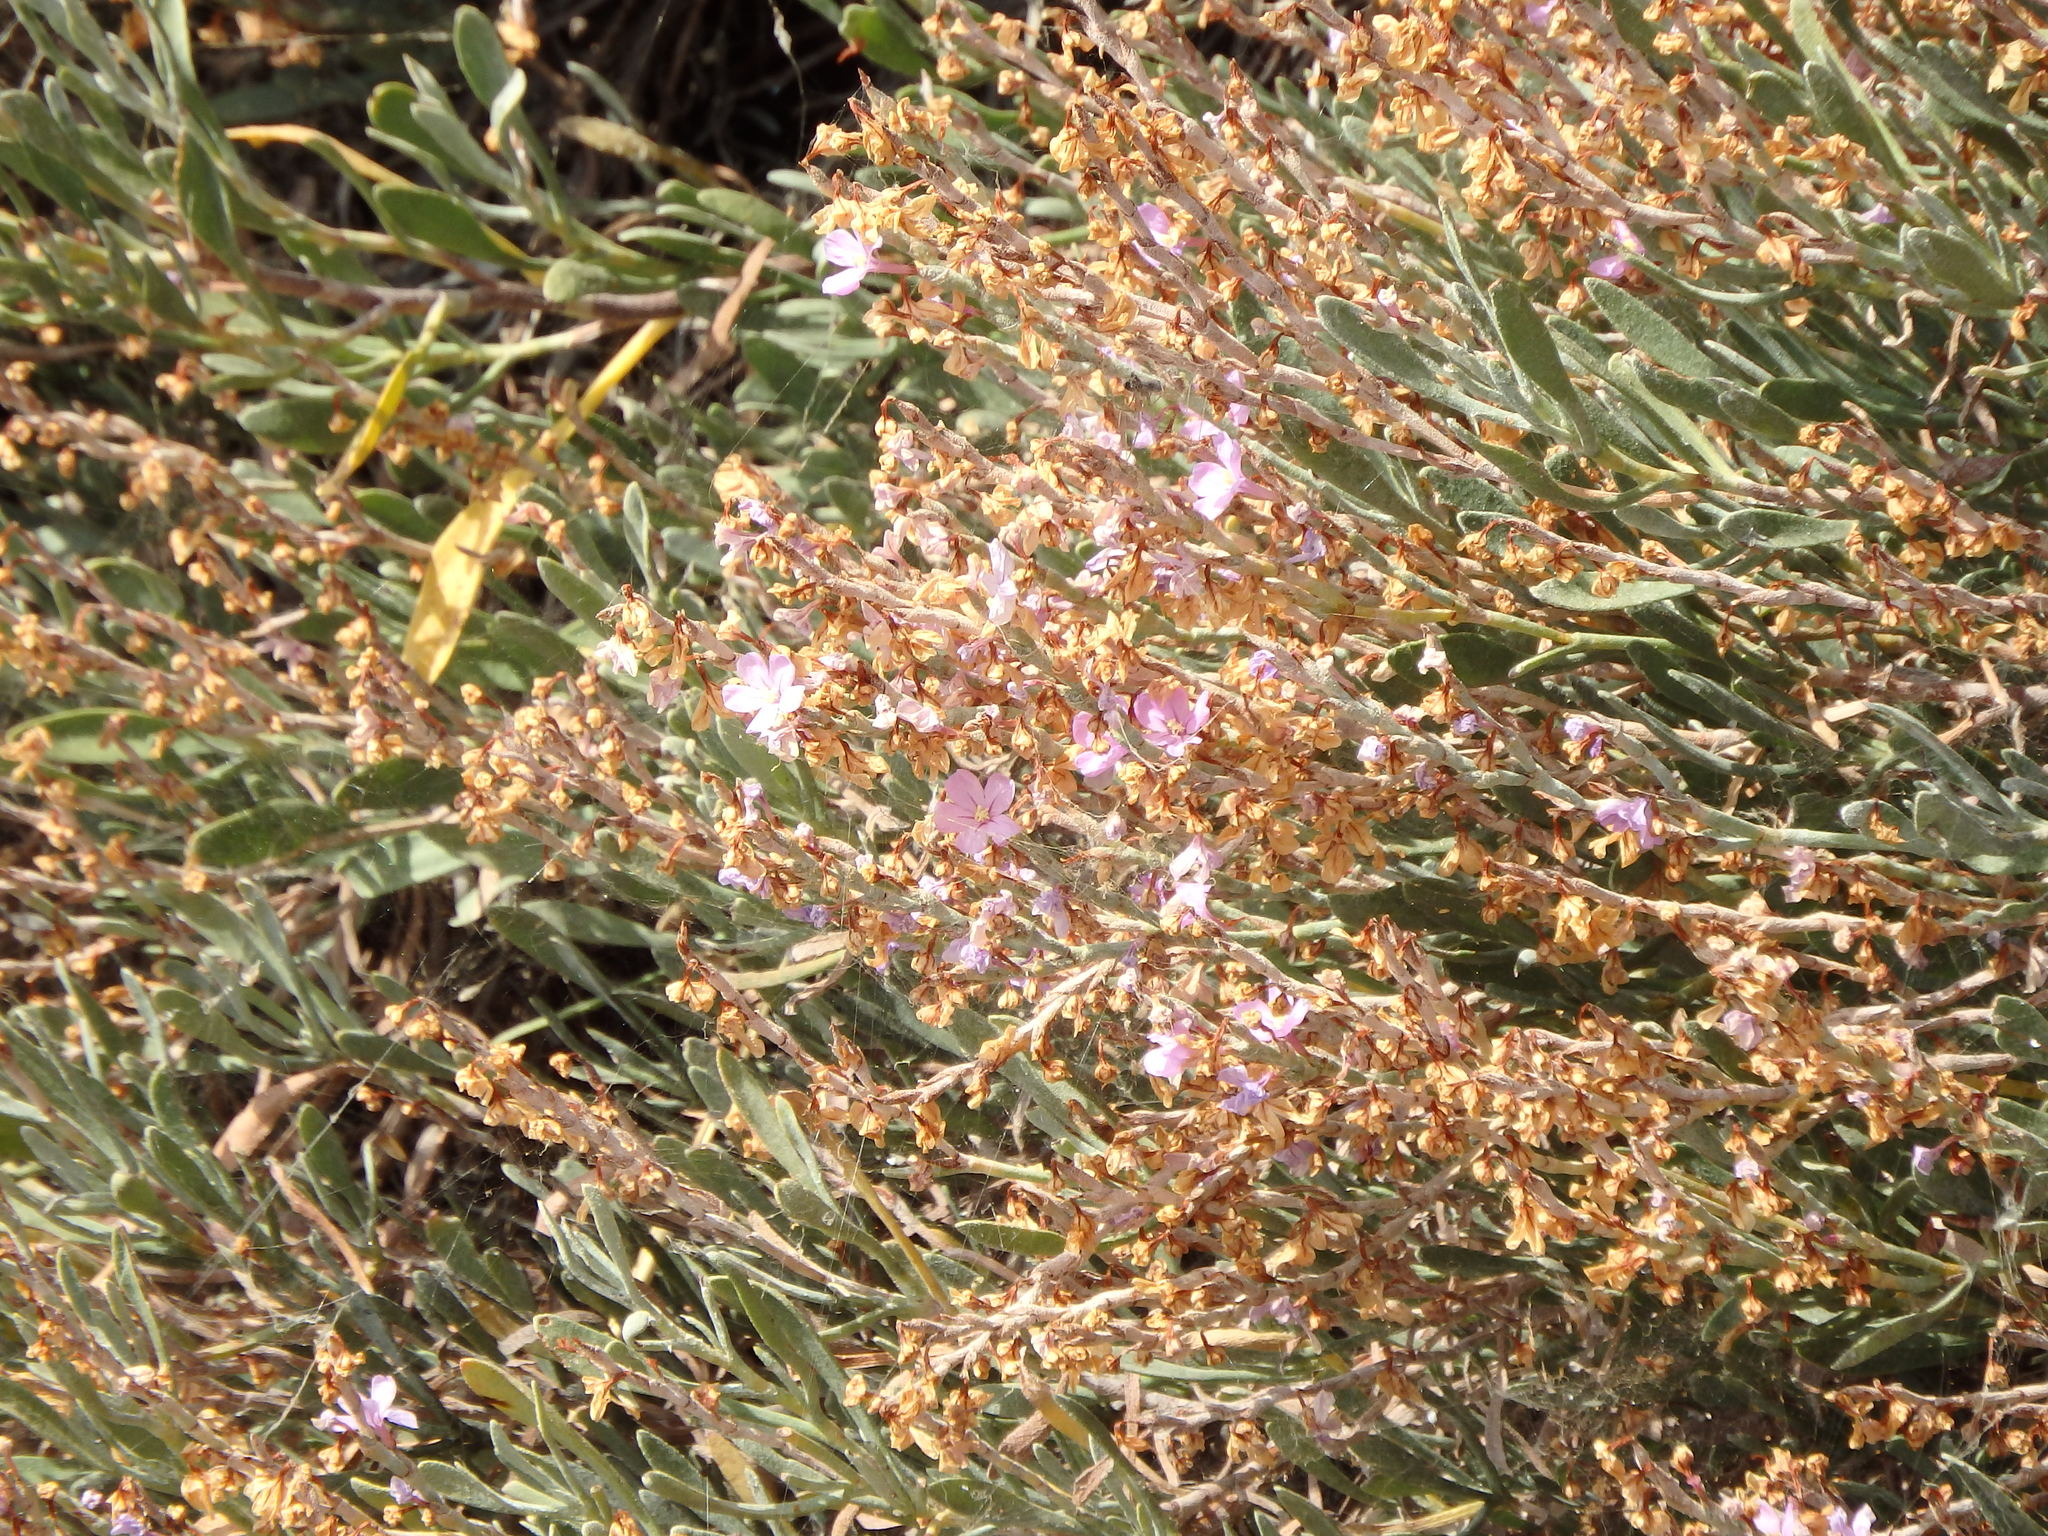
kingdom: Plantae
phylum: Tracheophyta
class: Magnoliopsida
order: Caryophyllales
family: Plumbaginaceae
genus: Limoniastrum
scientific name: Limoniastrum monopetalum
